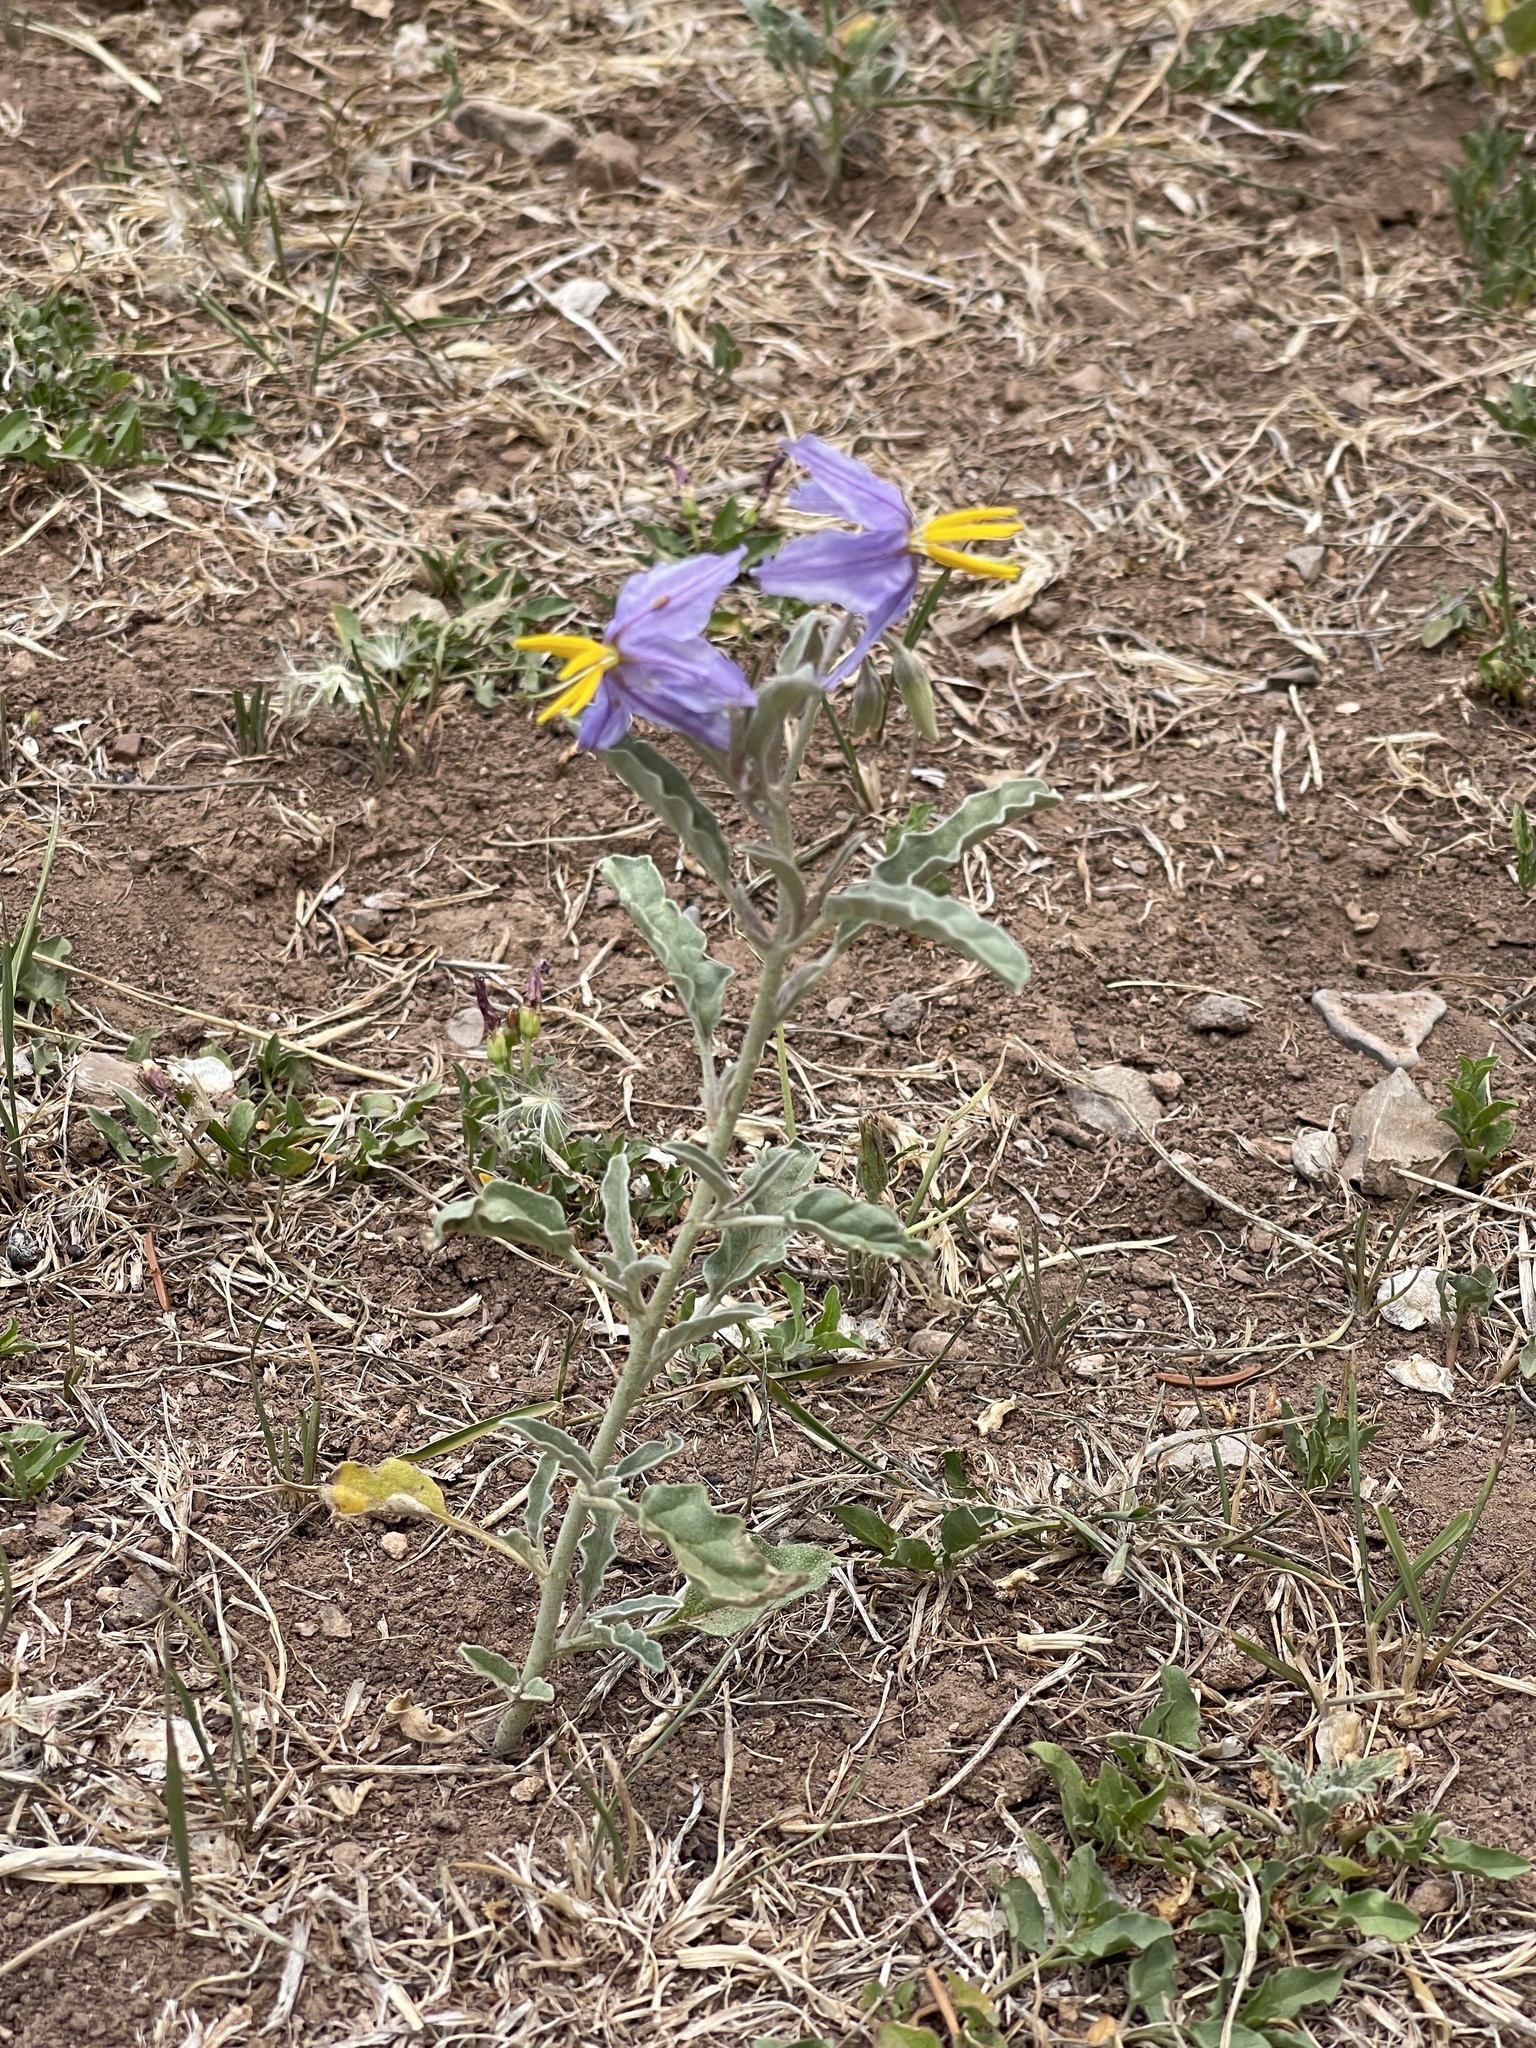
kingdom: Plantae
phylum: Tracheophyta
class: Magnoliopsida
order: Solanales
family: Solanaceae
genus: Solanum
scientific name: Solanum elaeagnifolium
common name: Silverleaf nightshade
